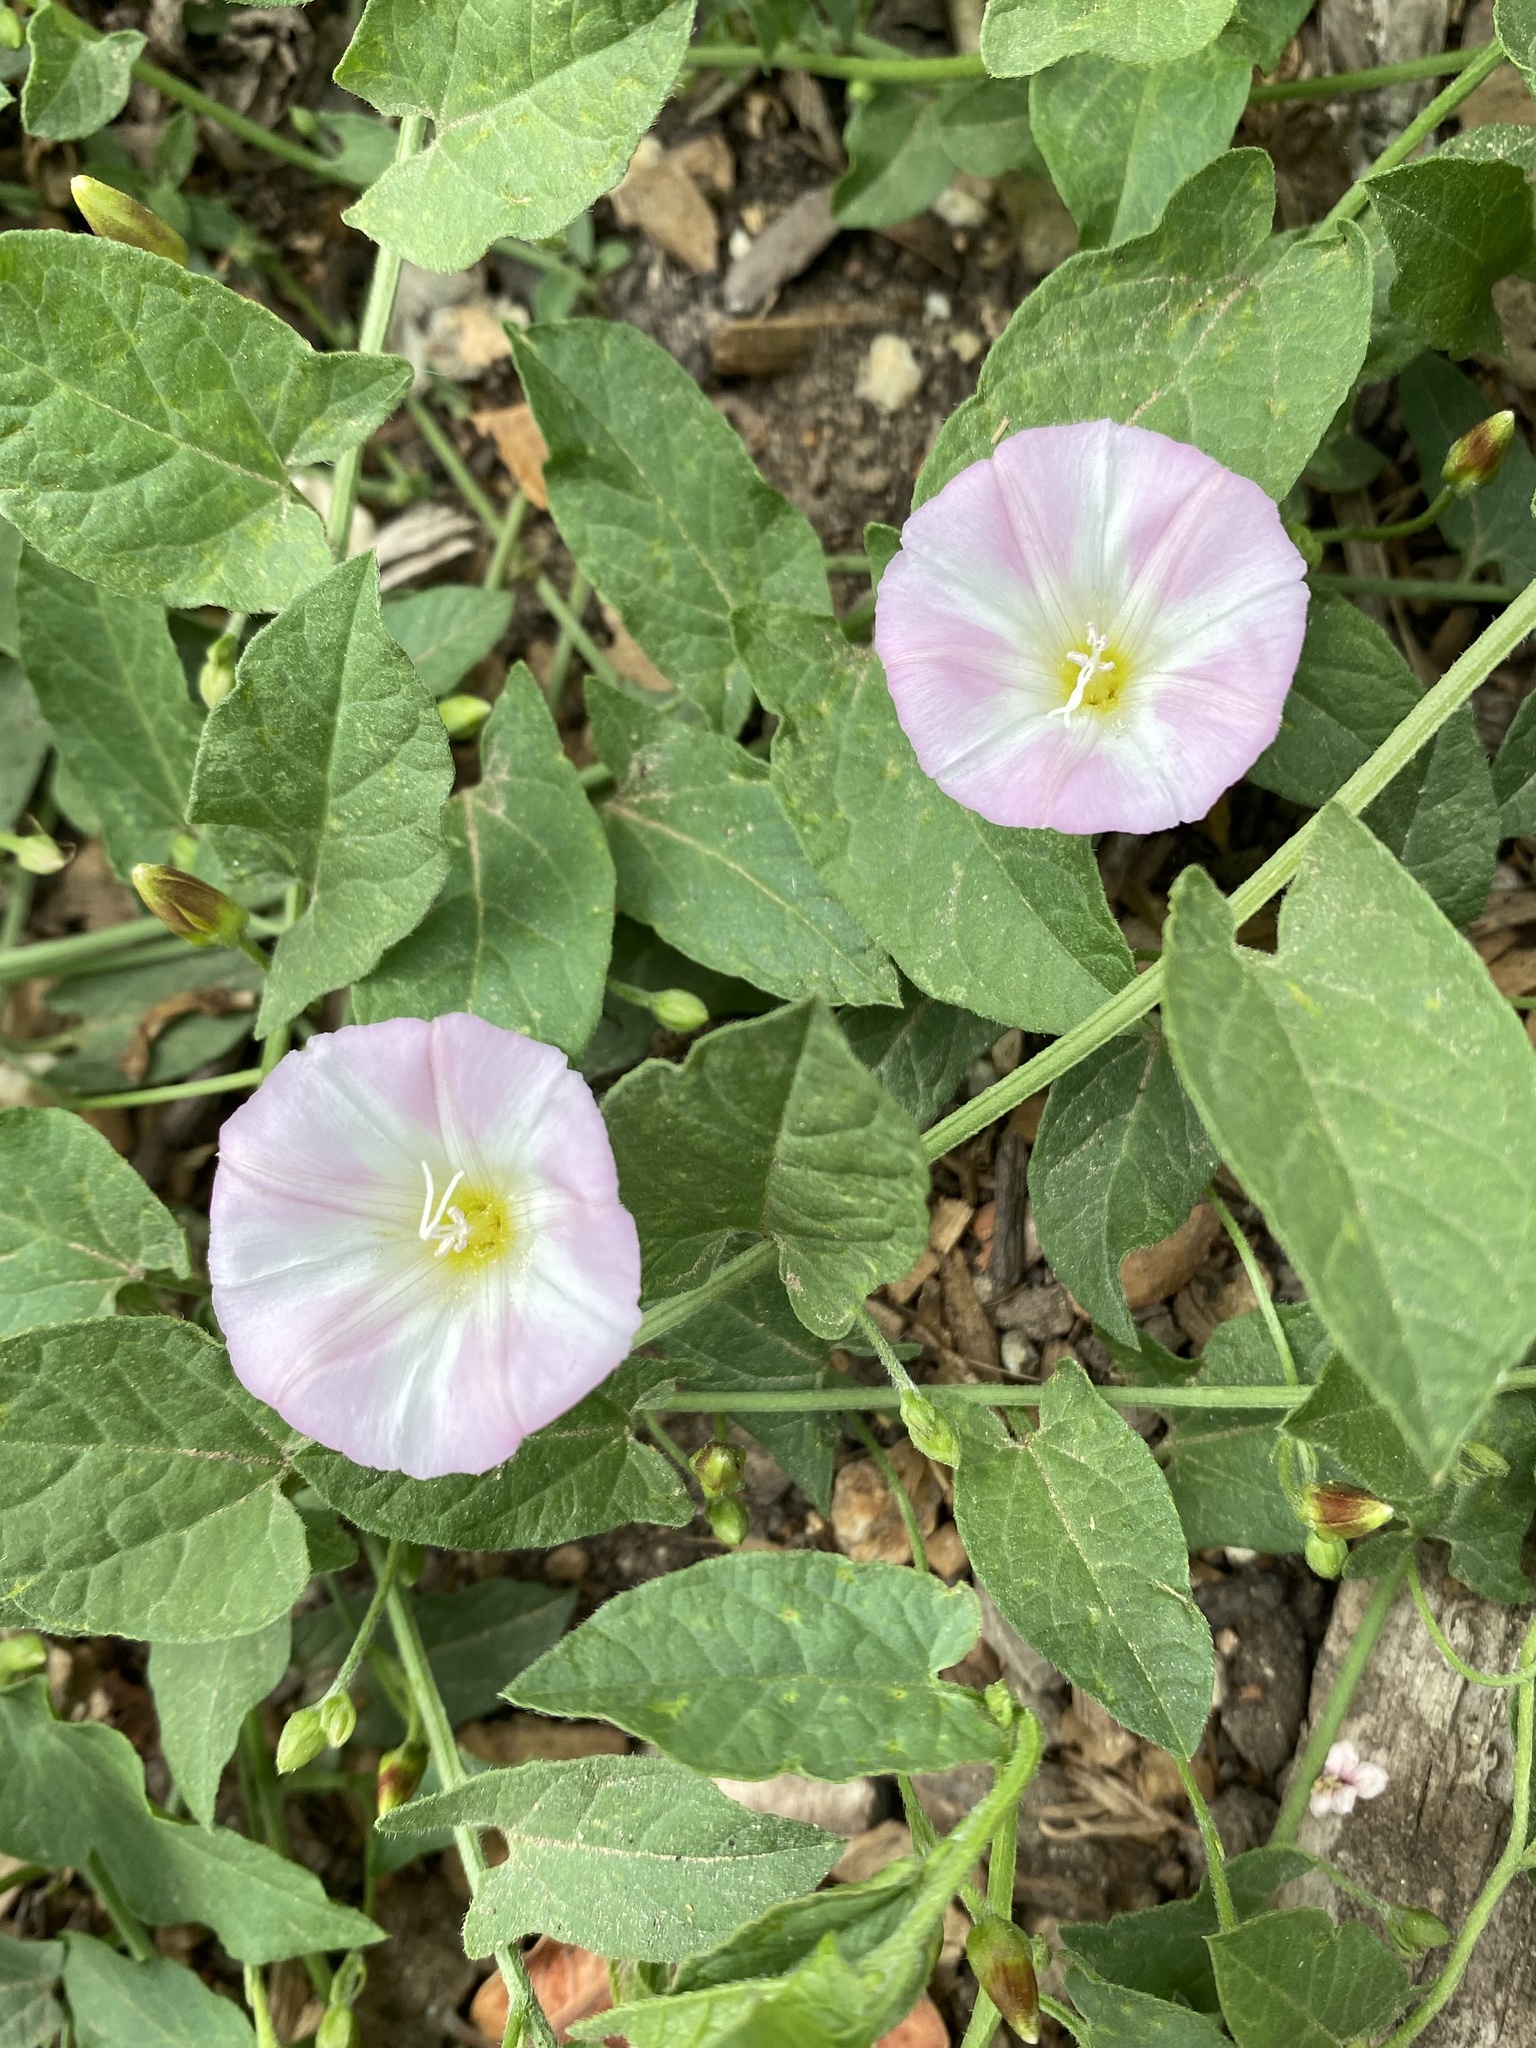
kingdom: Plantae
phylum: Tracheophyta
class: Magnoliopsida
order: Solanales
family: Convolvulaceae
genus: Convolvulus
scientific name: Convolvulus arvensis
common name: Field bindweed
